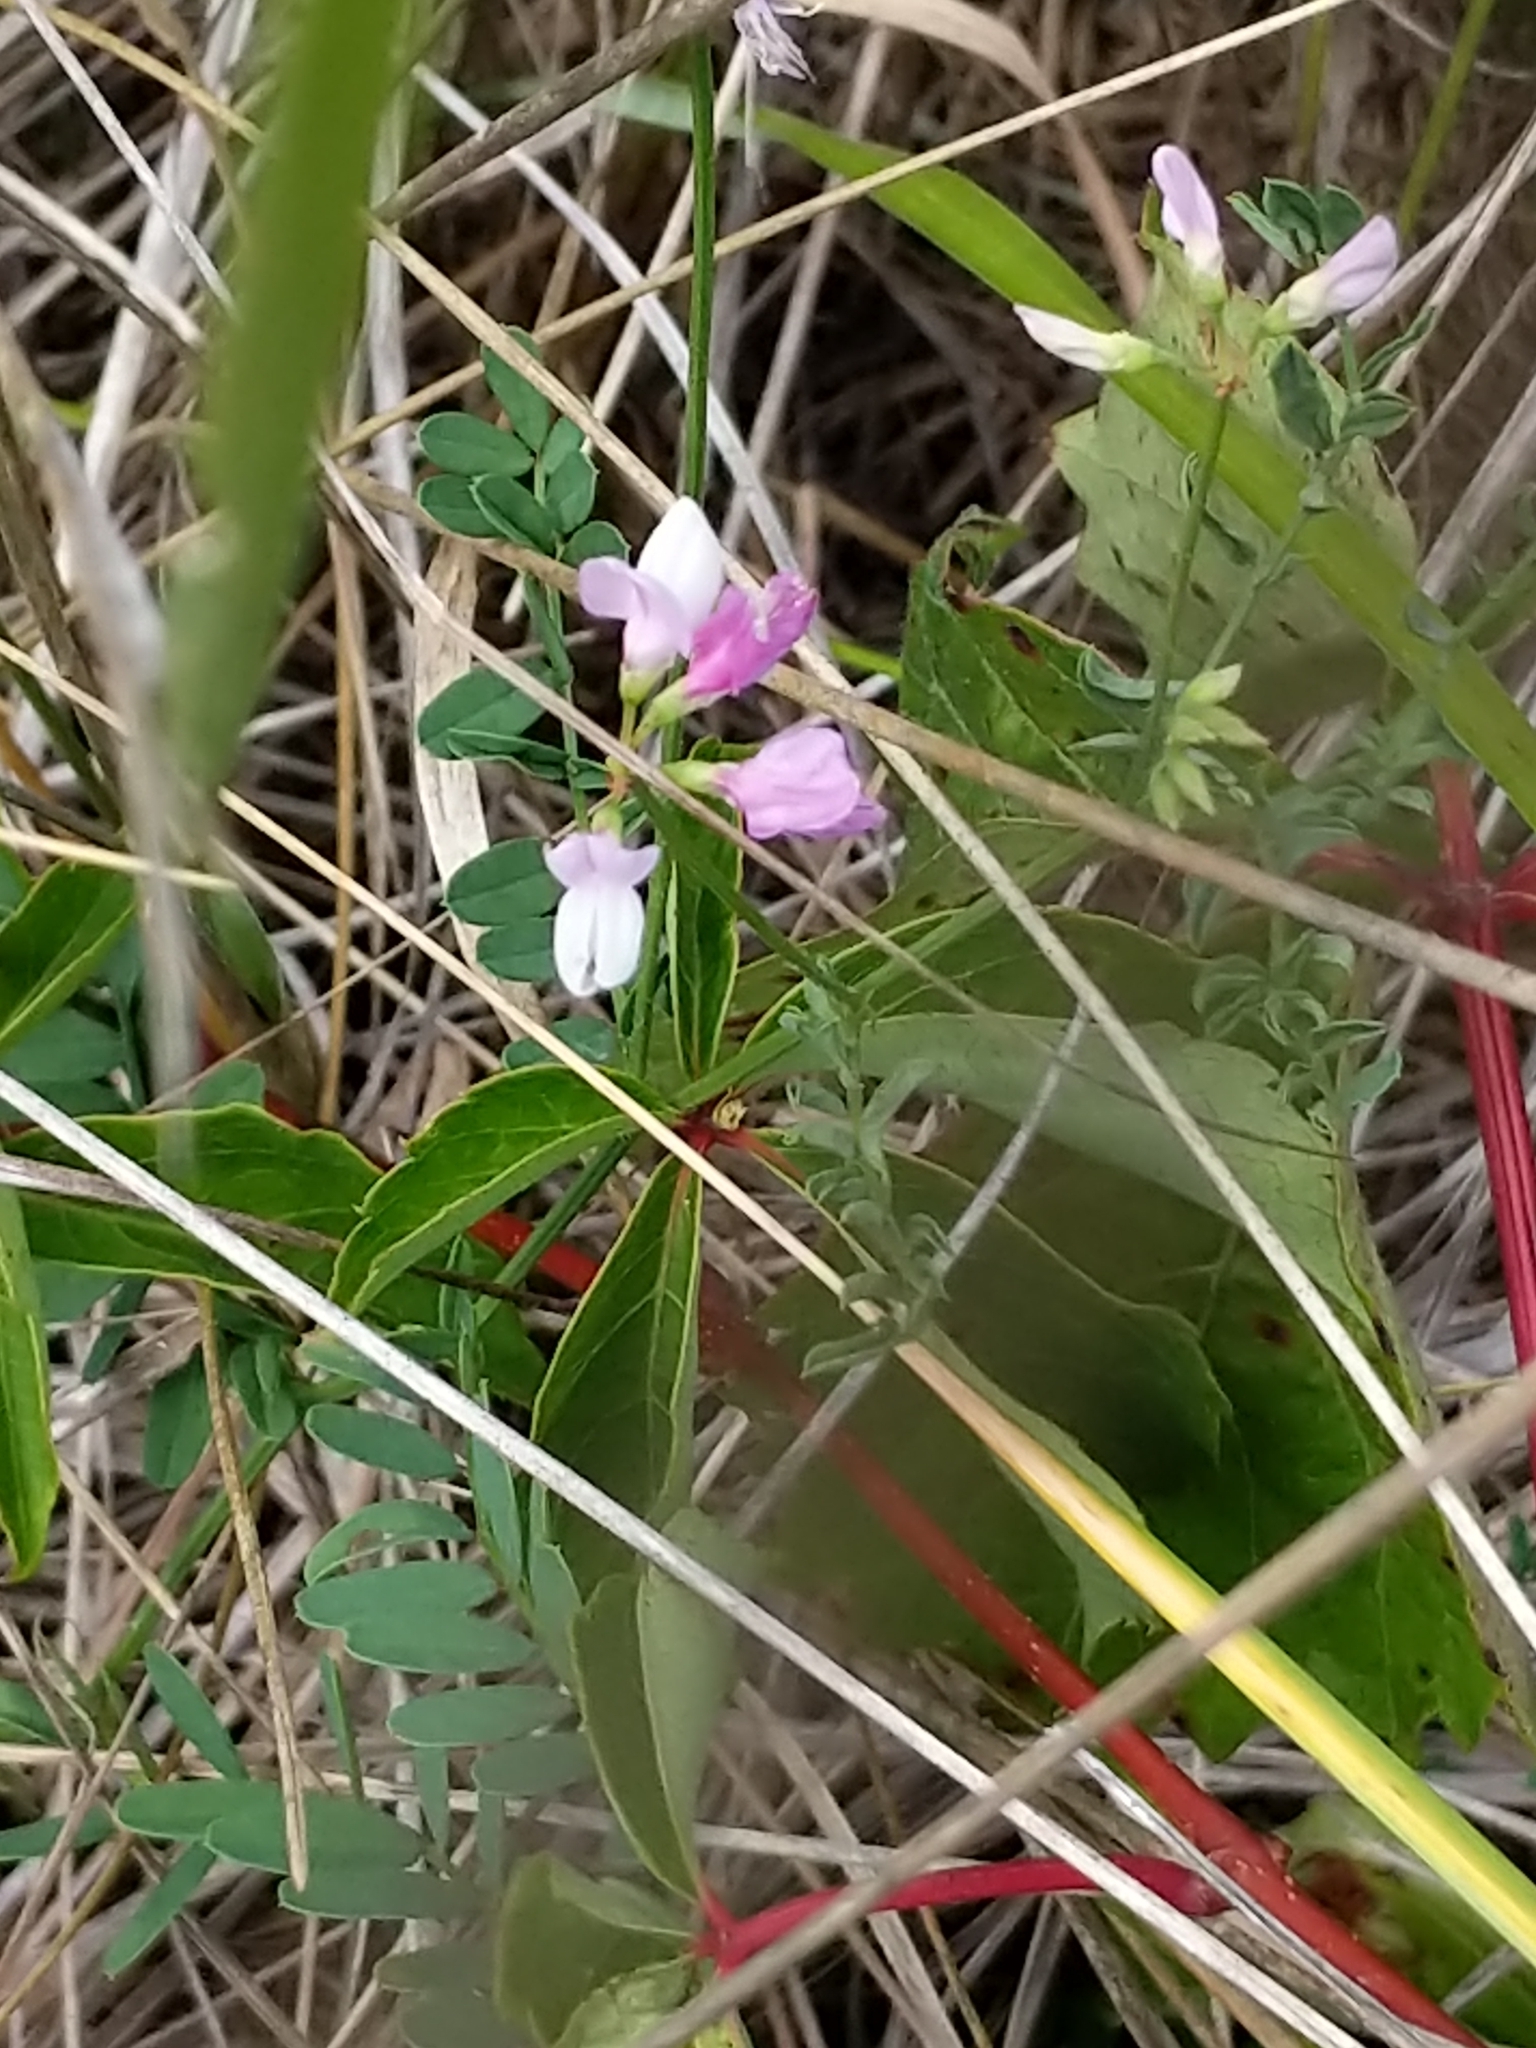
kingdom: Plantae
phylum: Tracheophyta
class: Magnoliopsida
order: Fabales
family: Fabaceae
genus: Coronilla
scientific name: Coronilla varia
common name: Crownvetch
